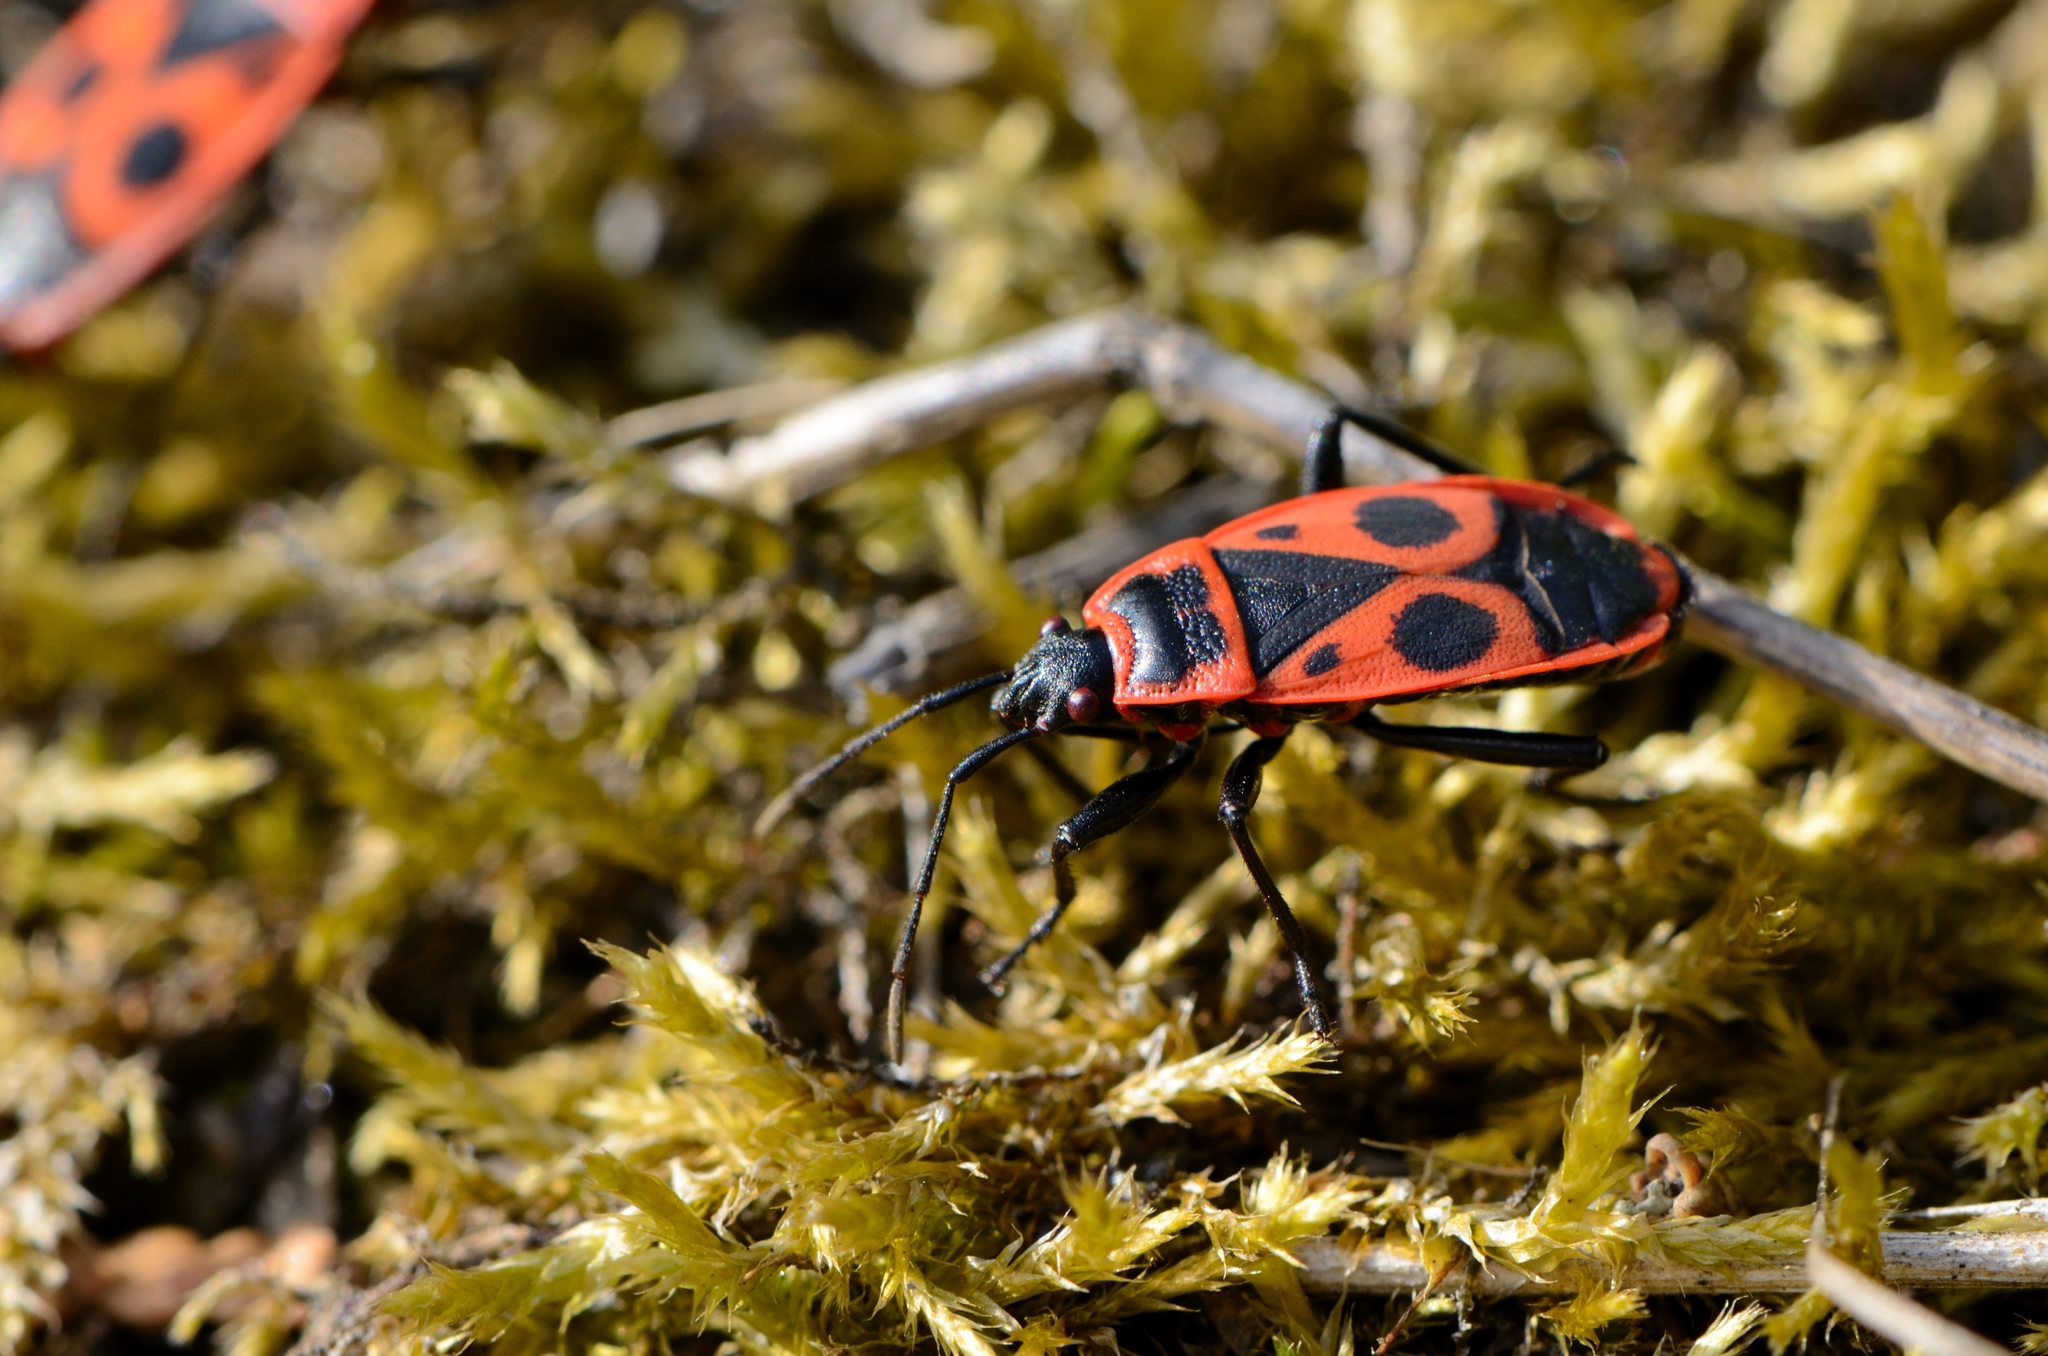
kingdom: Animalia
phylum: Arthropoda
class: Insecta
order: Hemiptera
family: Pyrrhocoridae
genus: Pyrrhocoris
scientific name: Pyrrhocoris apterus
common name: Firebug
